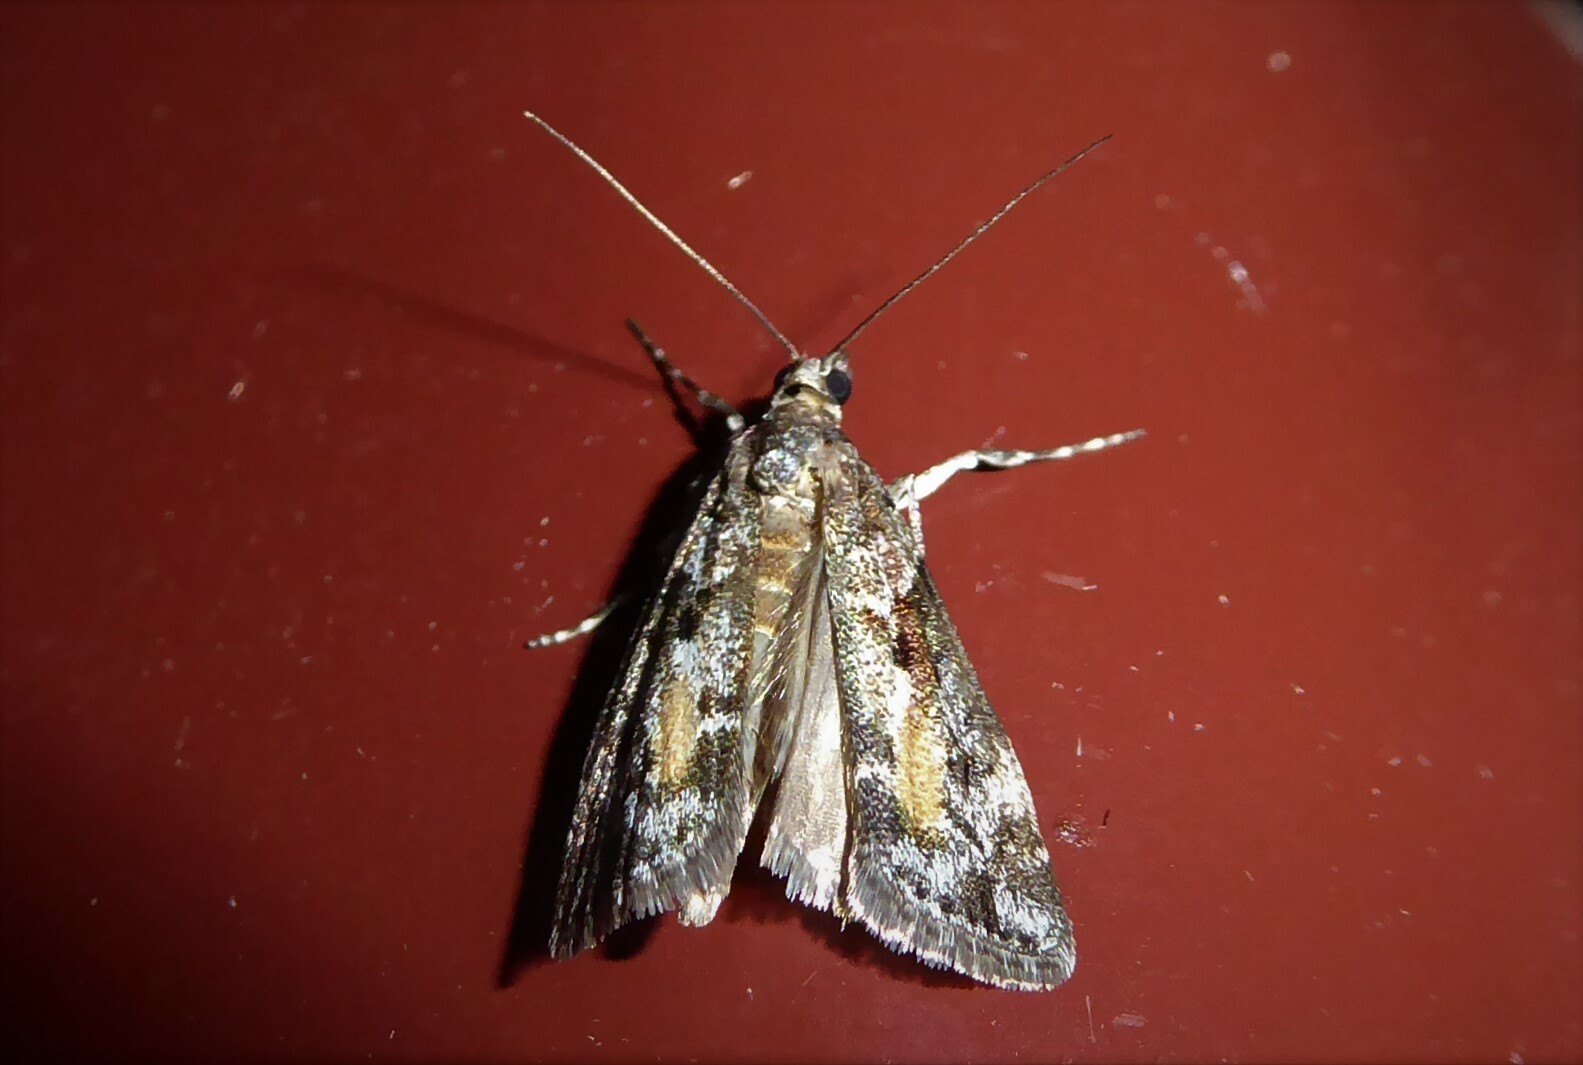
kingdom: Animalia
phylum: Arthropoda
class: Insecta
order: Lepidoptera
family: Crambidae
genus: Eudonia
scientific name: Eudonia submarginalis
